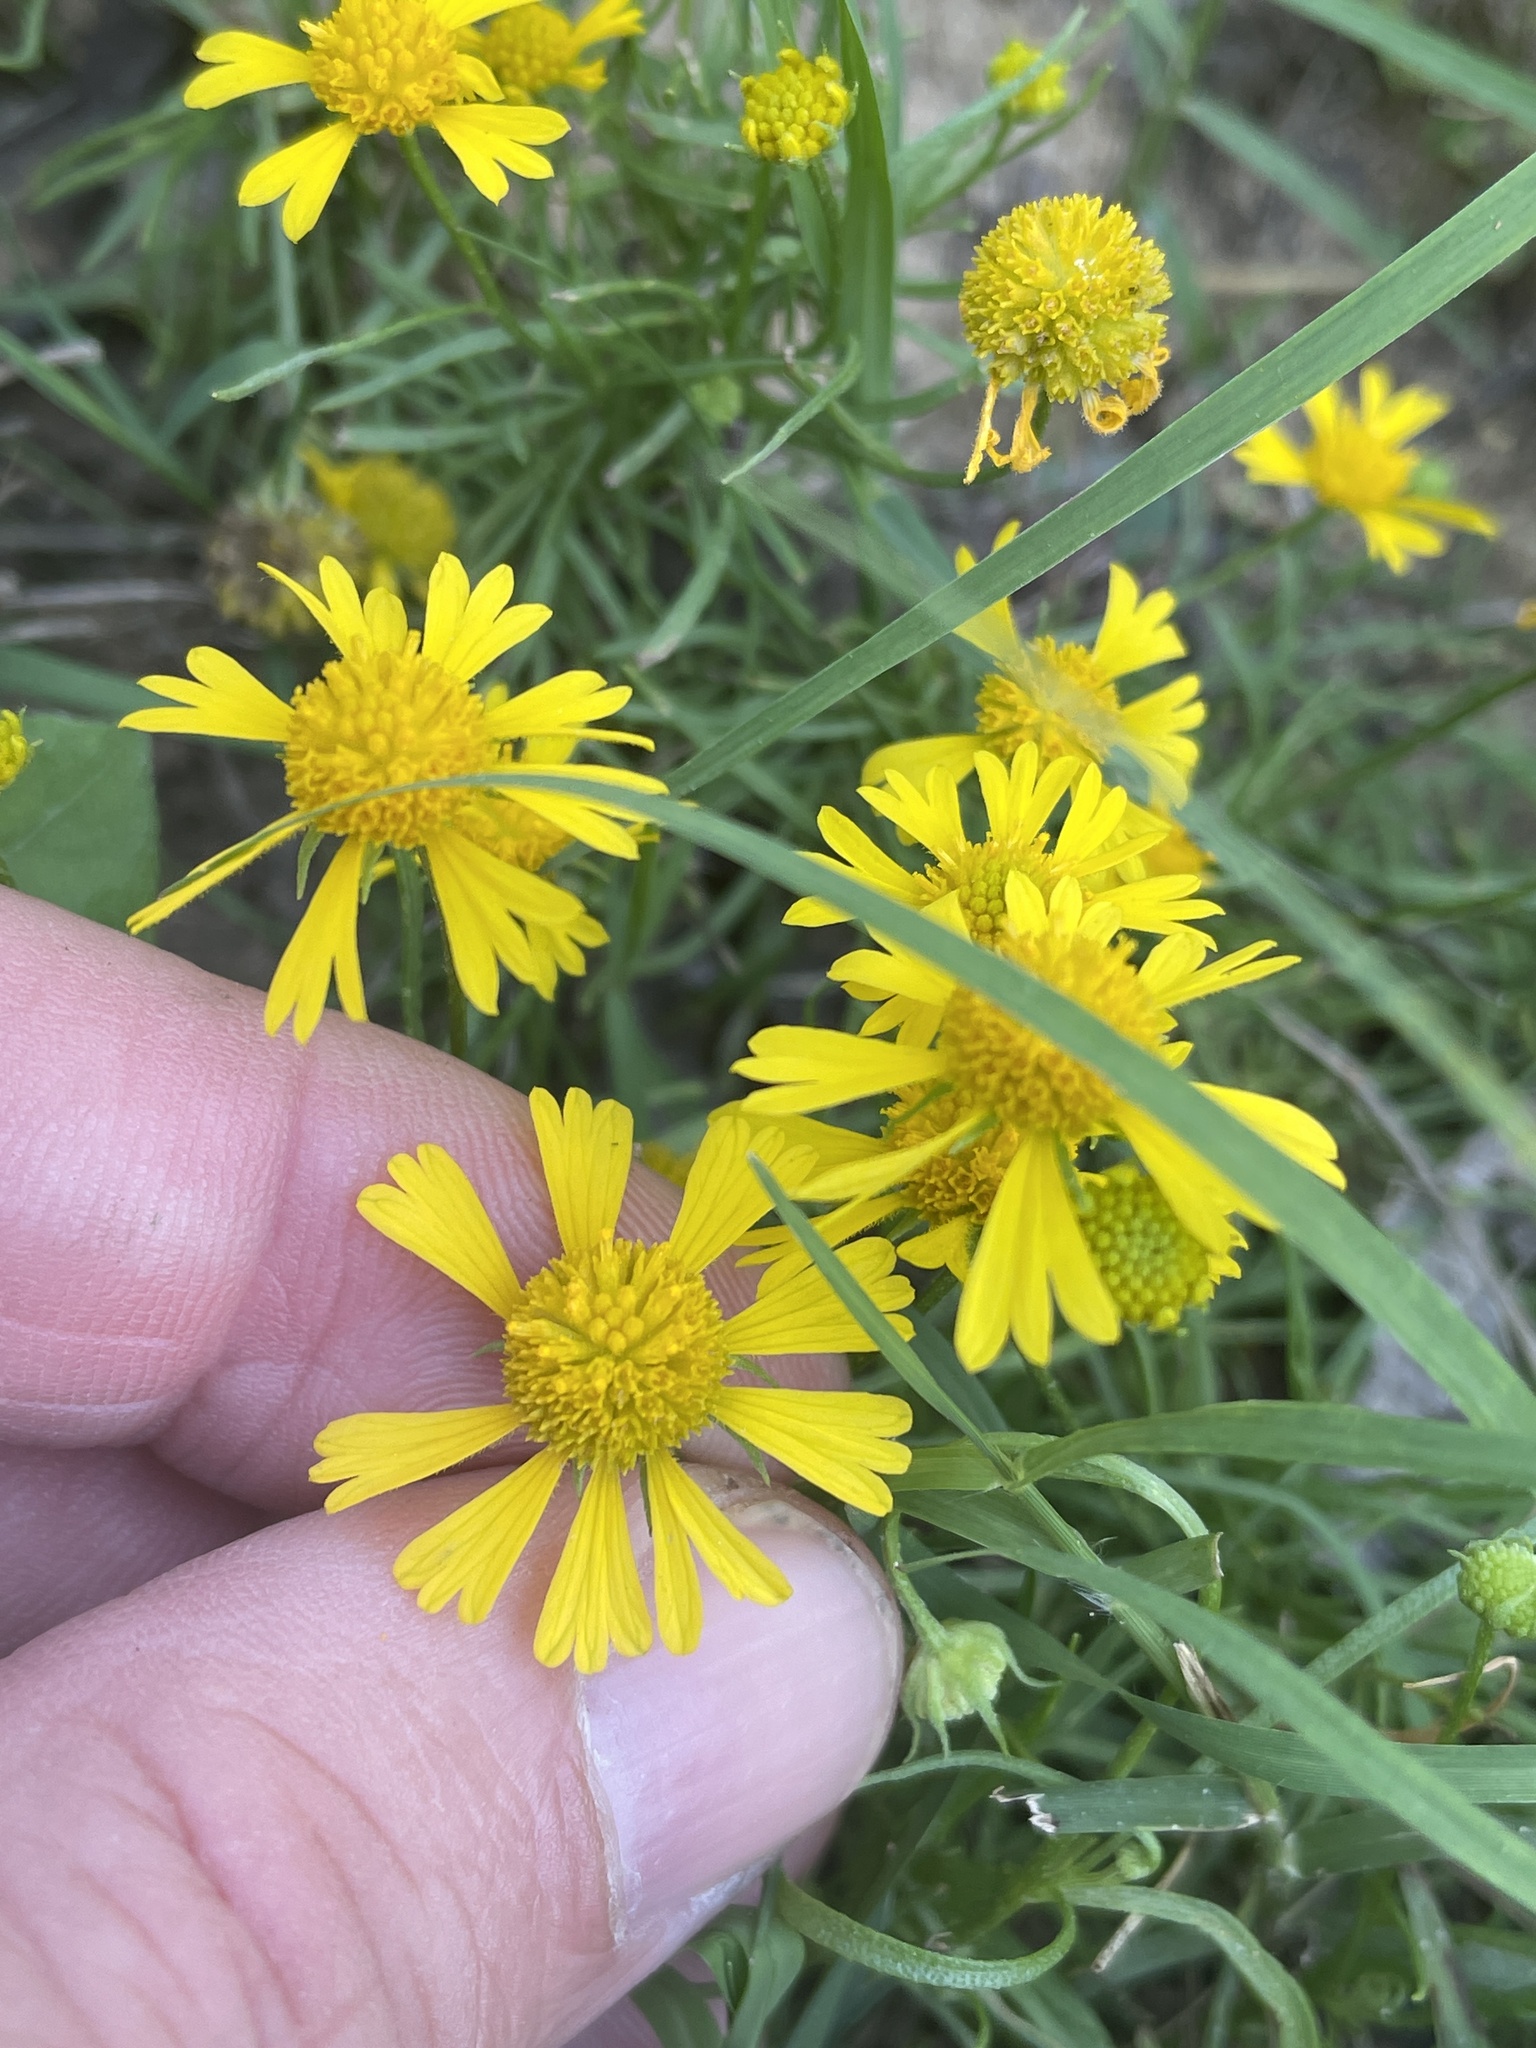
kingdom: Plantae
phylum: Tracheophyta
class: Magnoliopsida
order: Asterales
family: Asteraceae
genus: Helenium
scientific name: Helenium amarum
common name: Bitter sneezeweed
